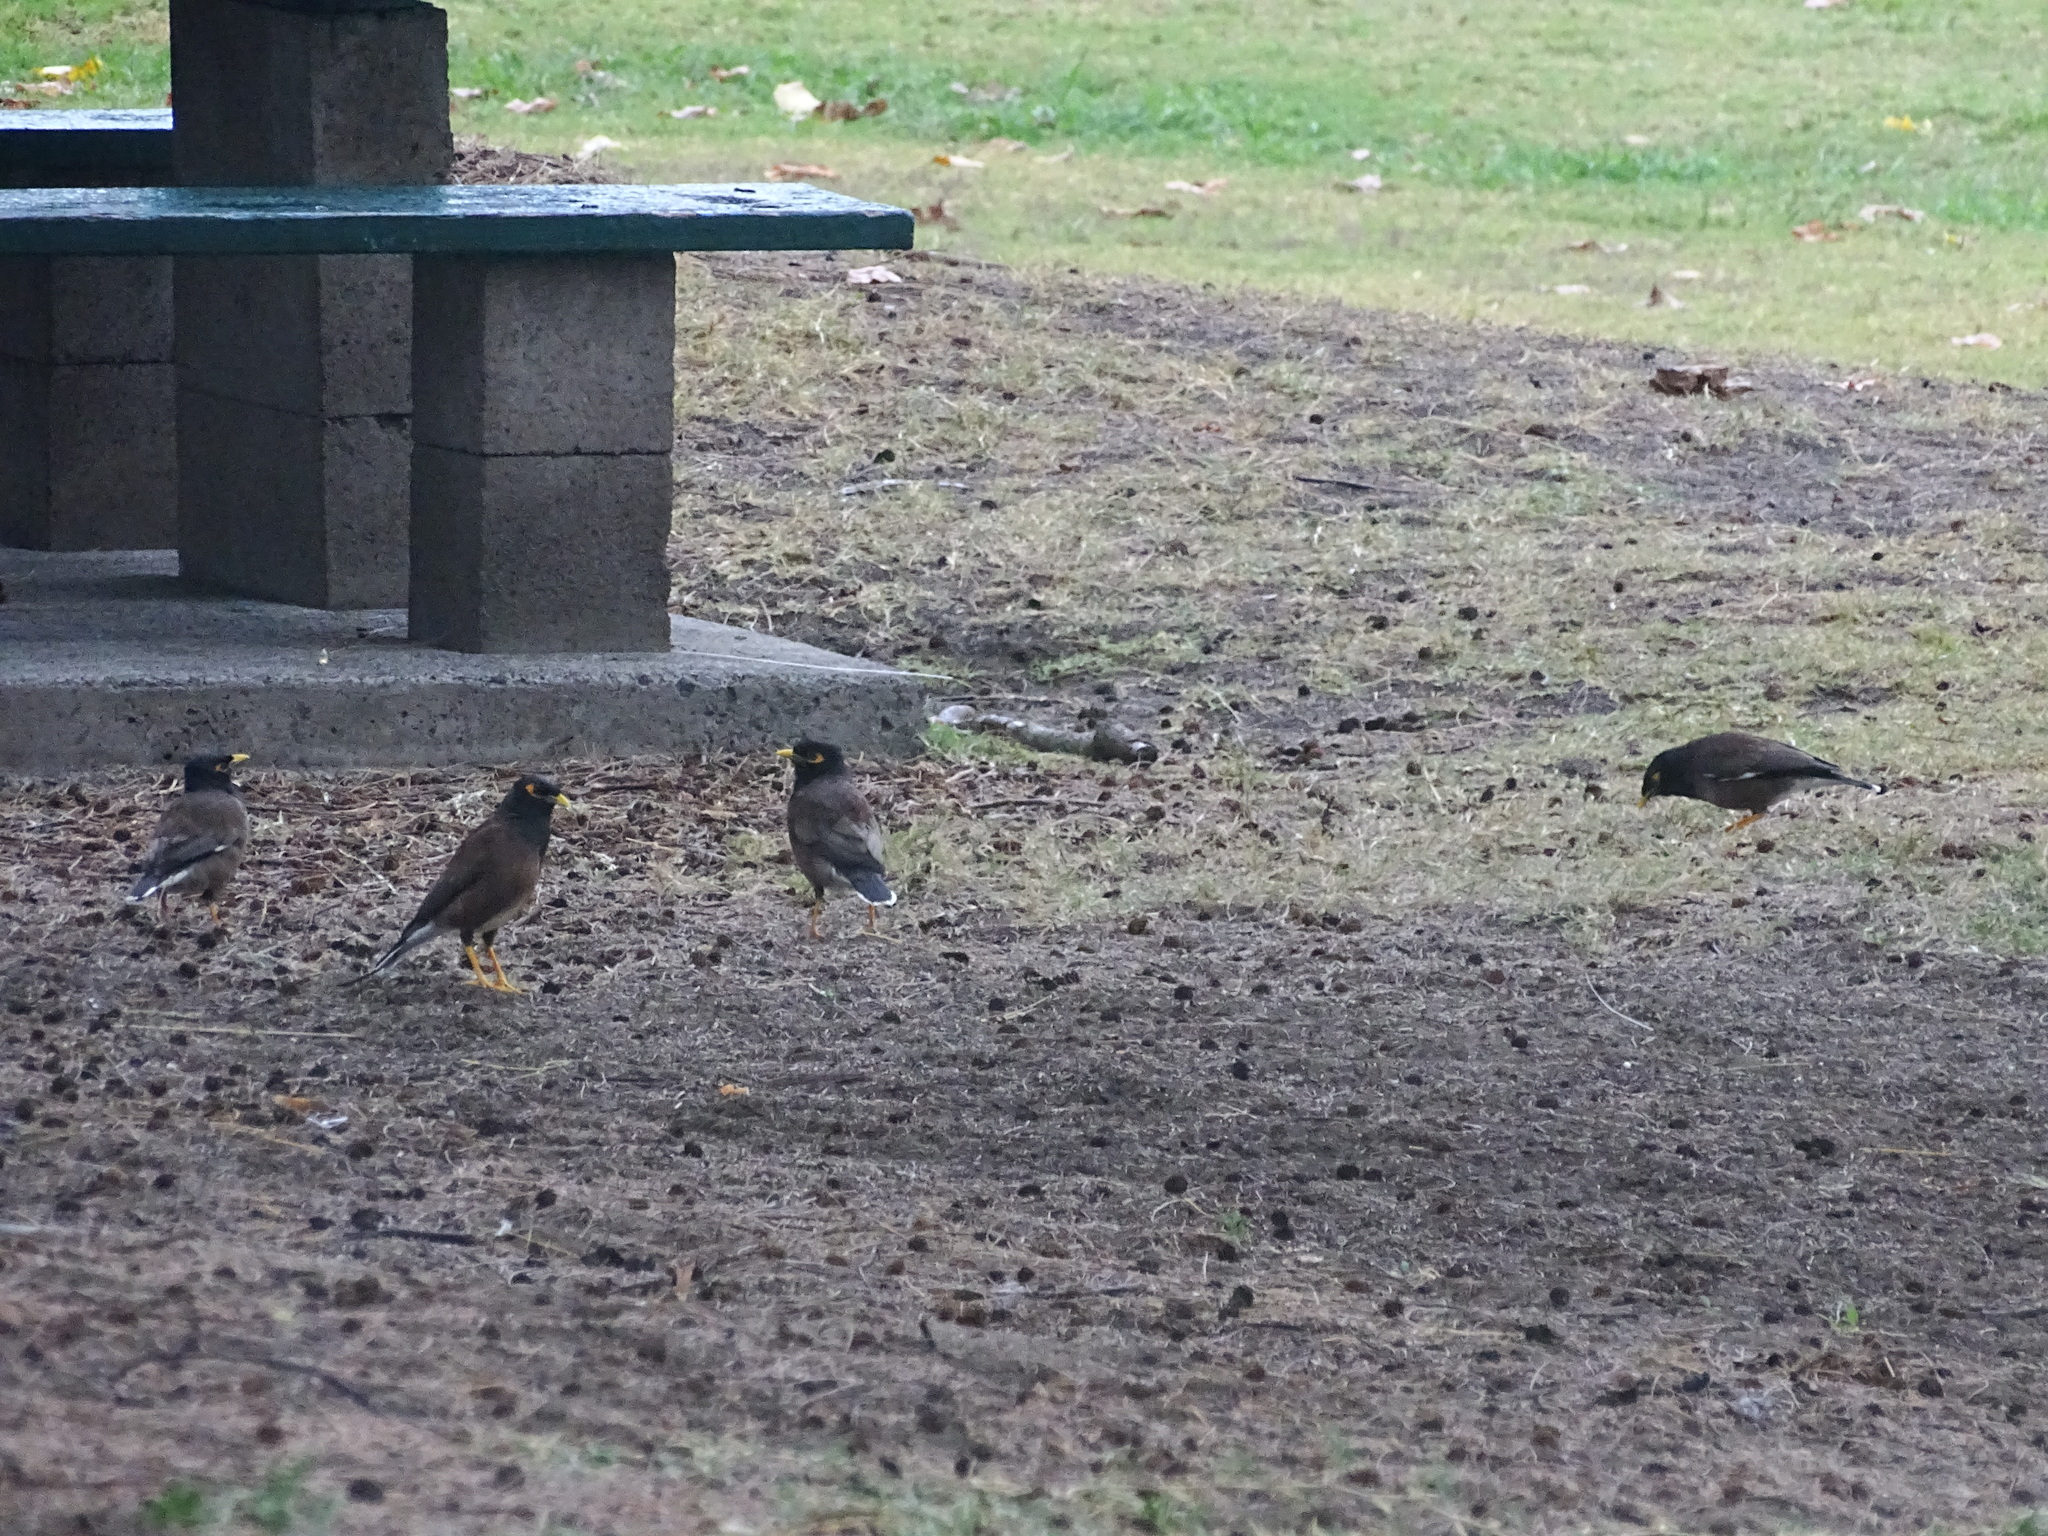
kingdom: Animalia
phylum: Chordata
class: Aves
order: Passeriformes
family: Sturnidae
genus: Acridotheres
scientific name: Acridotheres tristis
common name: Common myna
